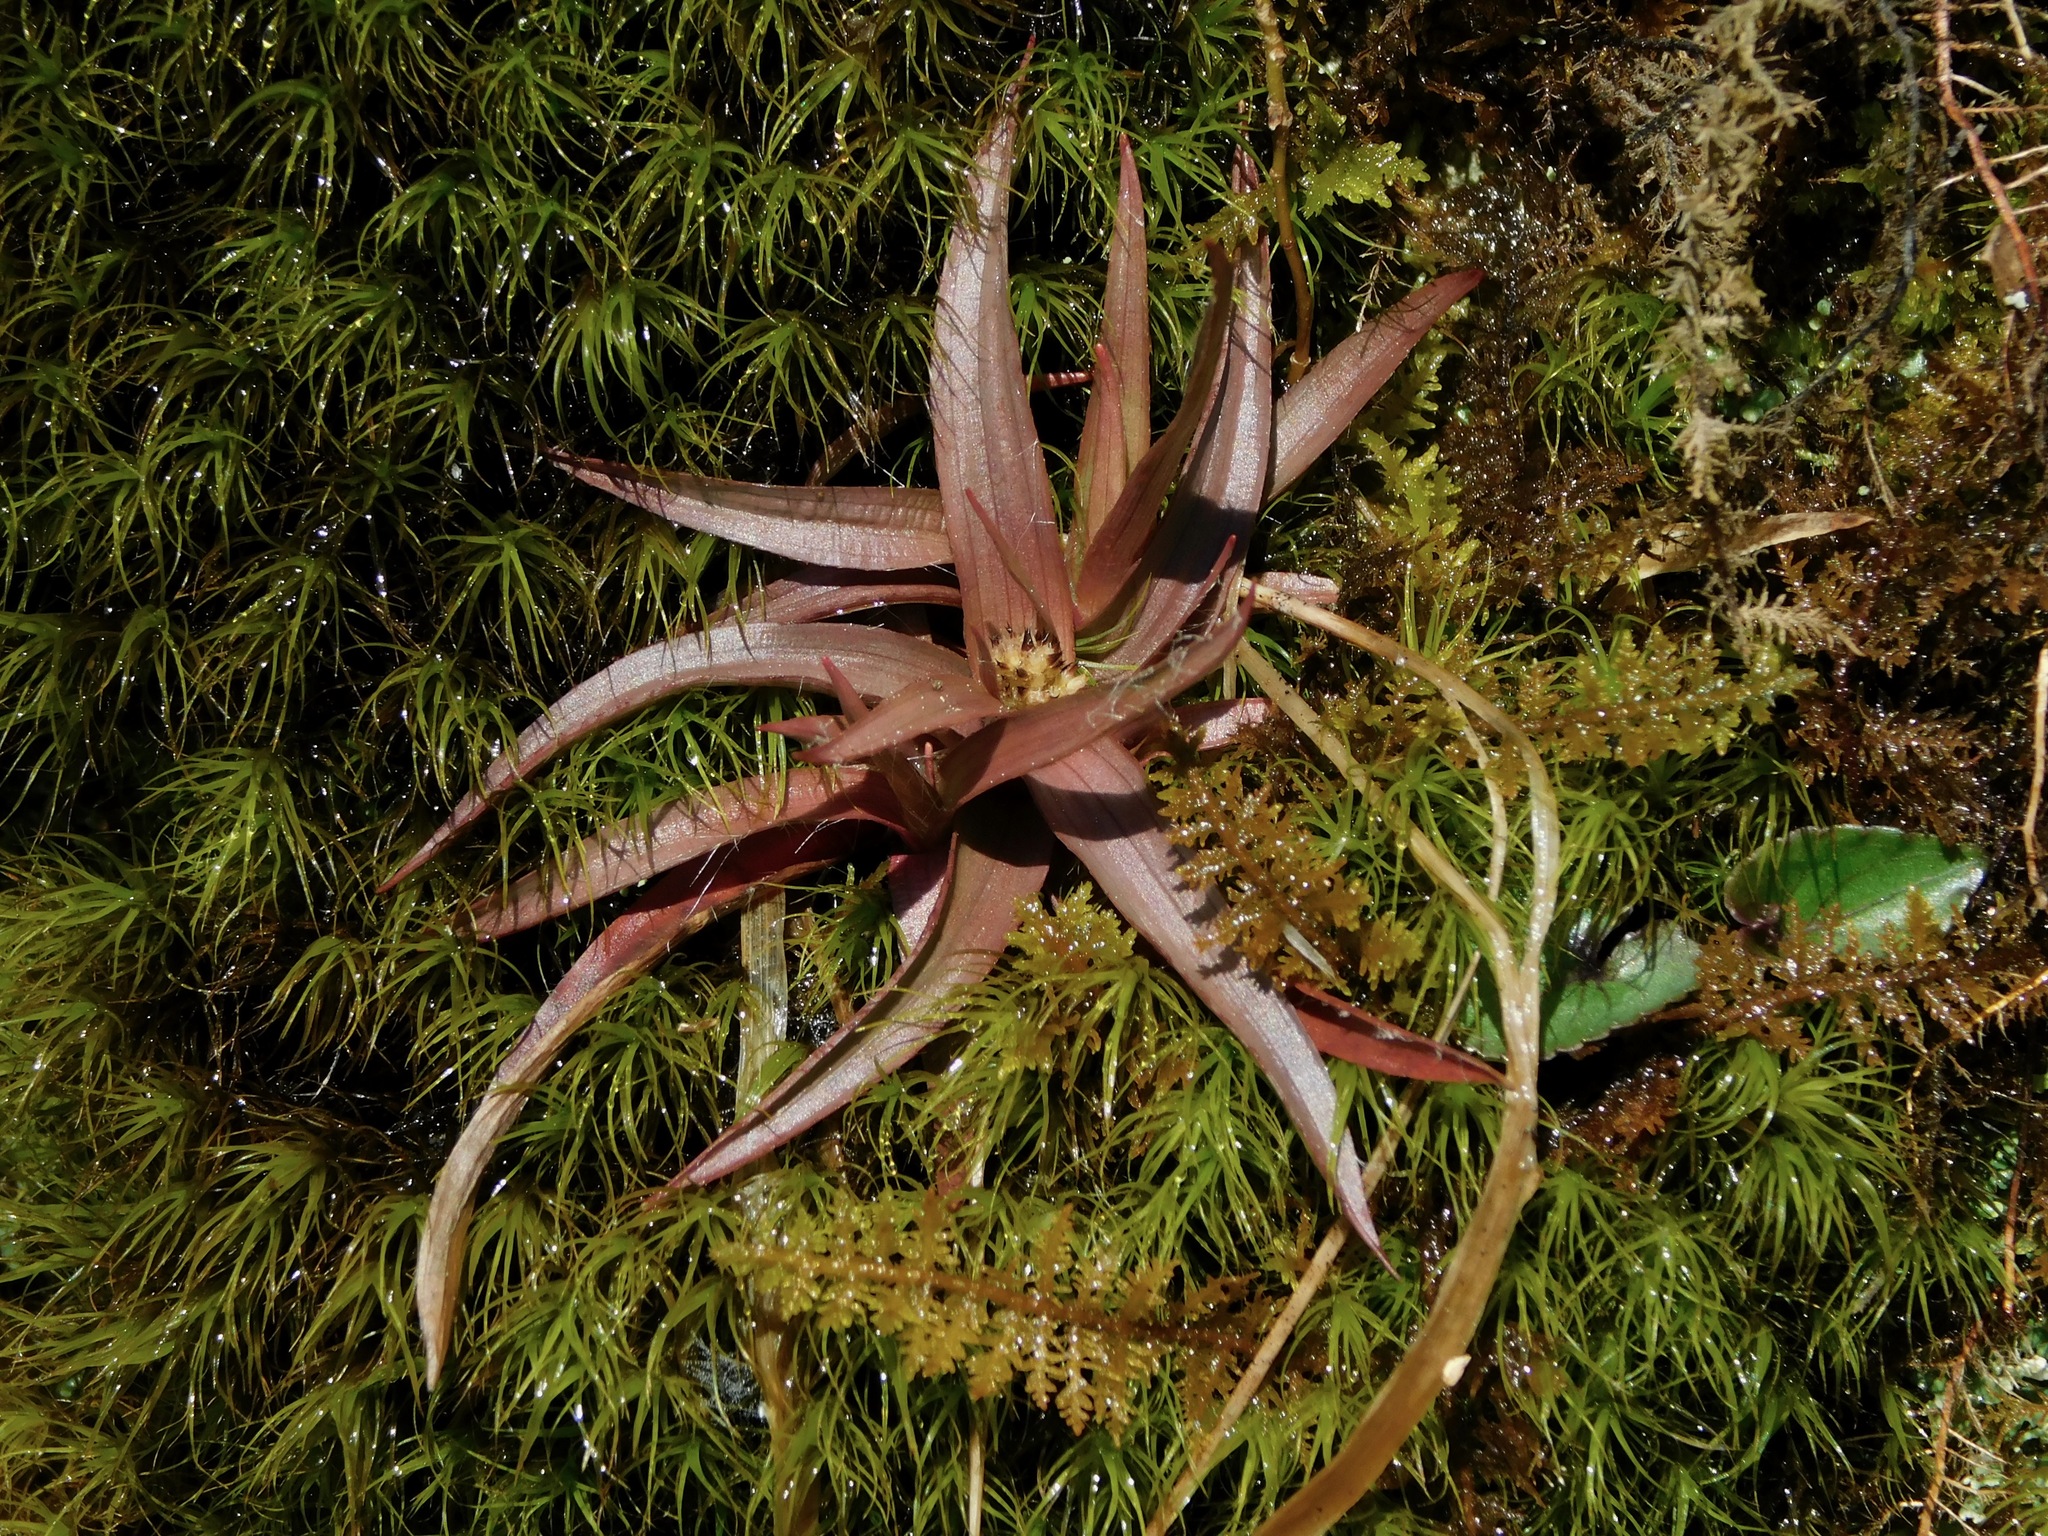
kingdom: Plantae
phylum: Tracheophyta
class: Liliopsida
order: Poales
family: Juncaceae
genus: Luzula
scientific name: Luzula echinata
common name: Hedgehog woodrush
